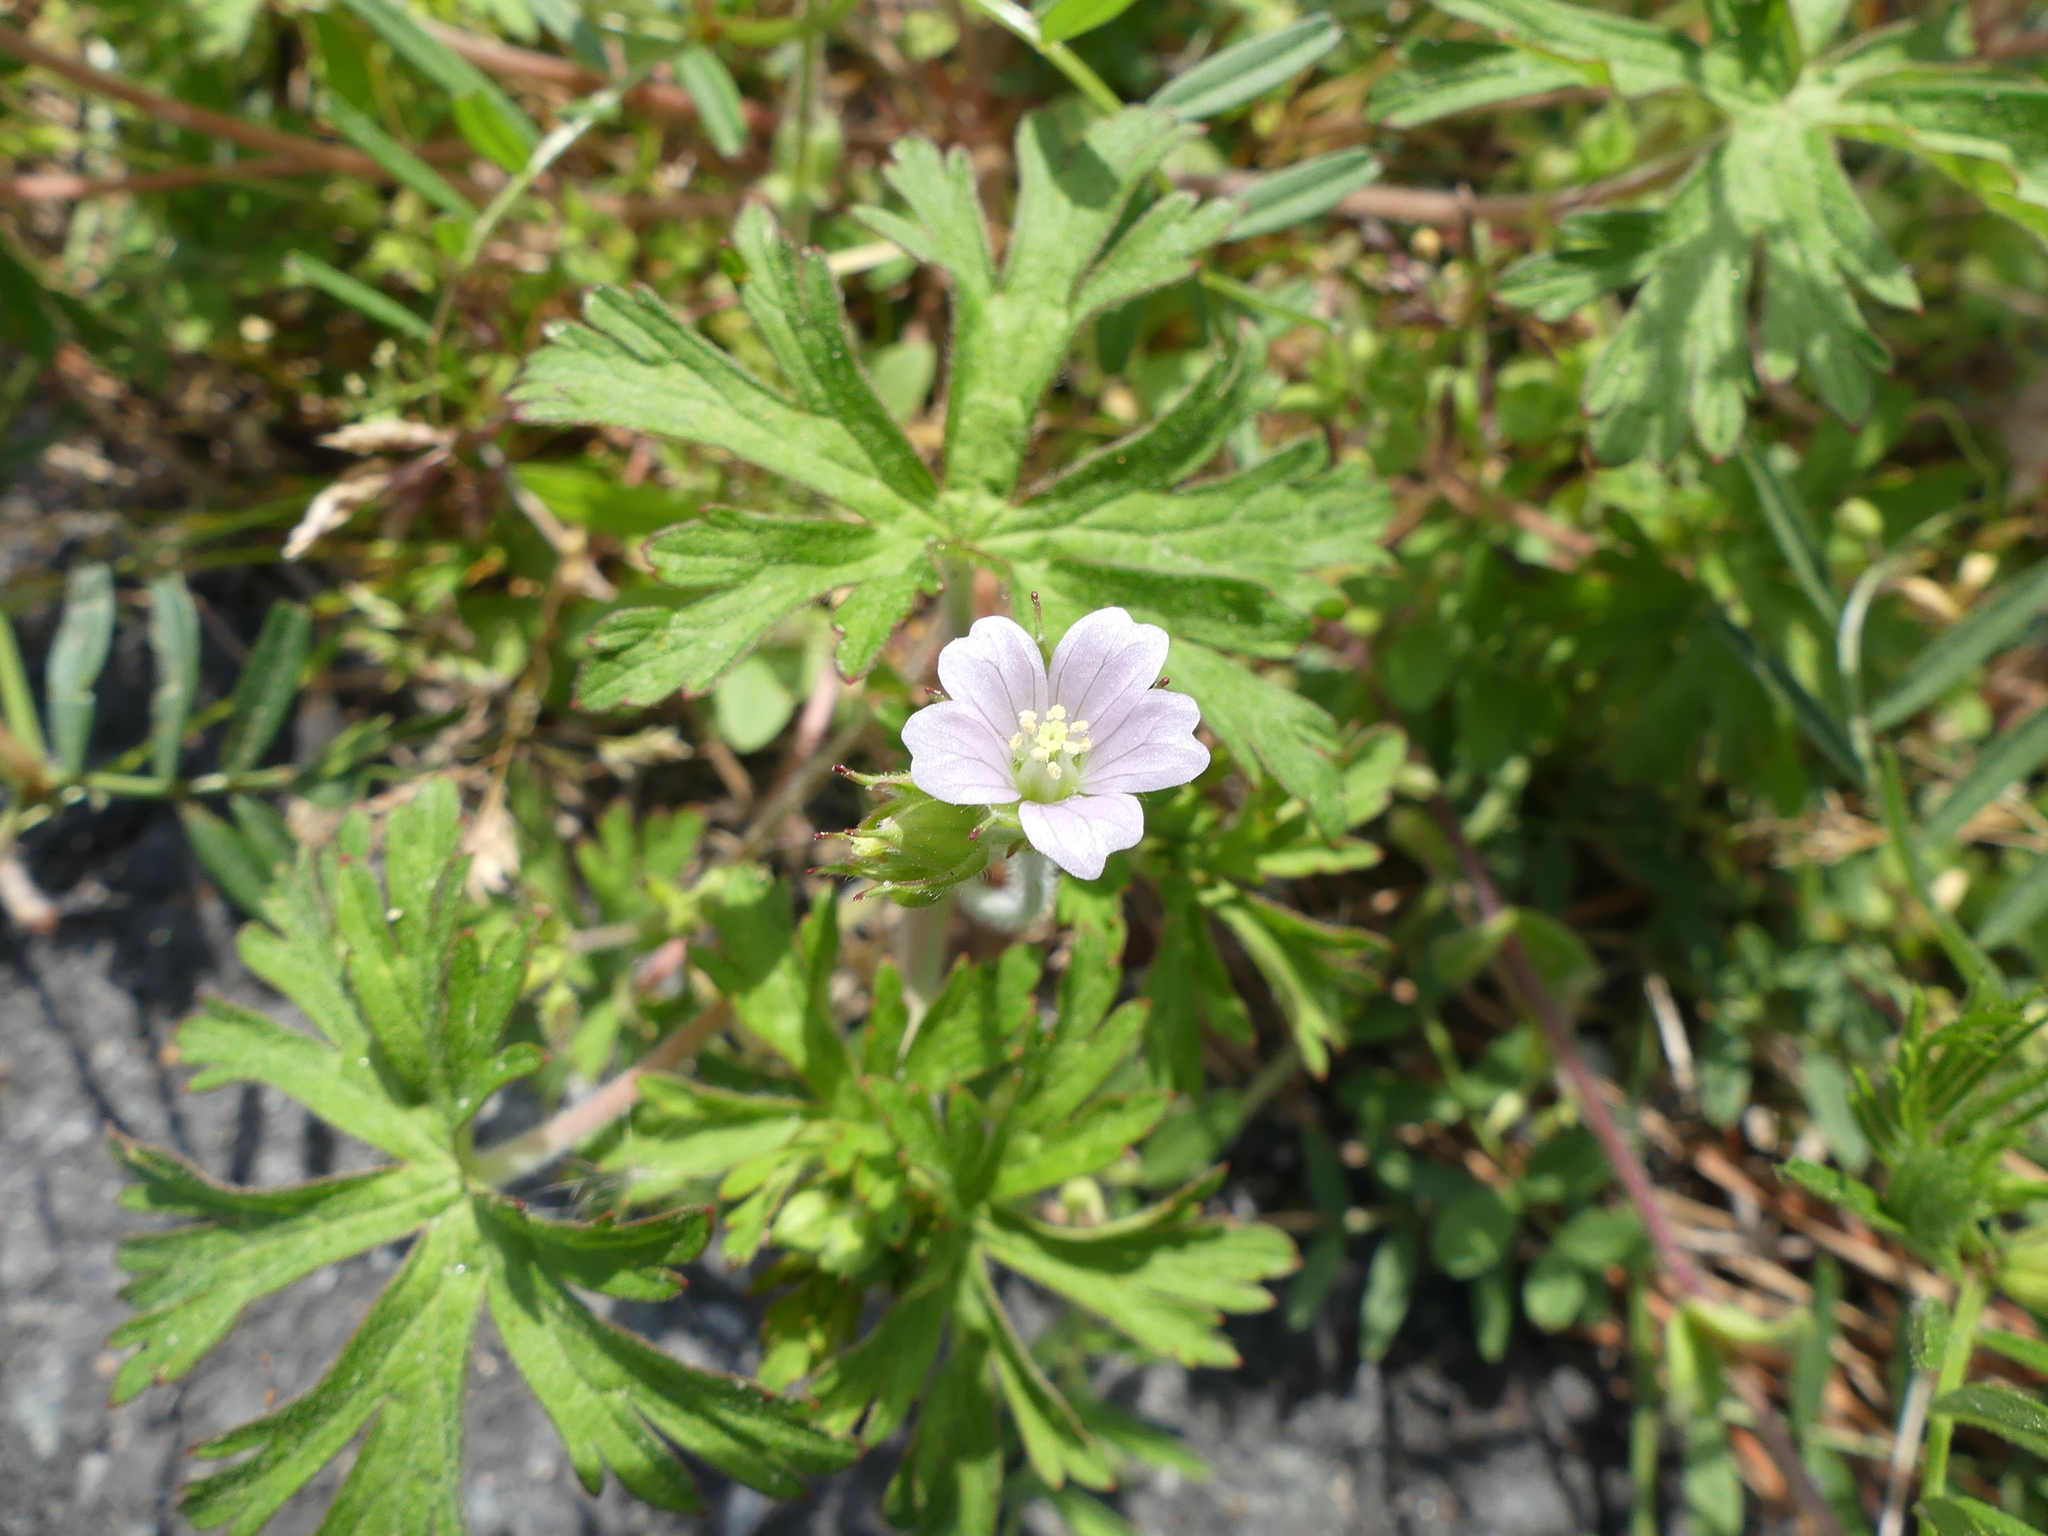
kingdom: Plantae
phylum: Tracheophyta
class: Magnoliopsida
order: Geraniales
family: Geraniaceae
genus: Geranium
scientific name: Geranium carolinianum
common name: Carolina crane's-bill
